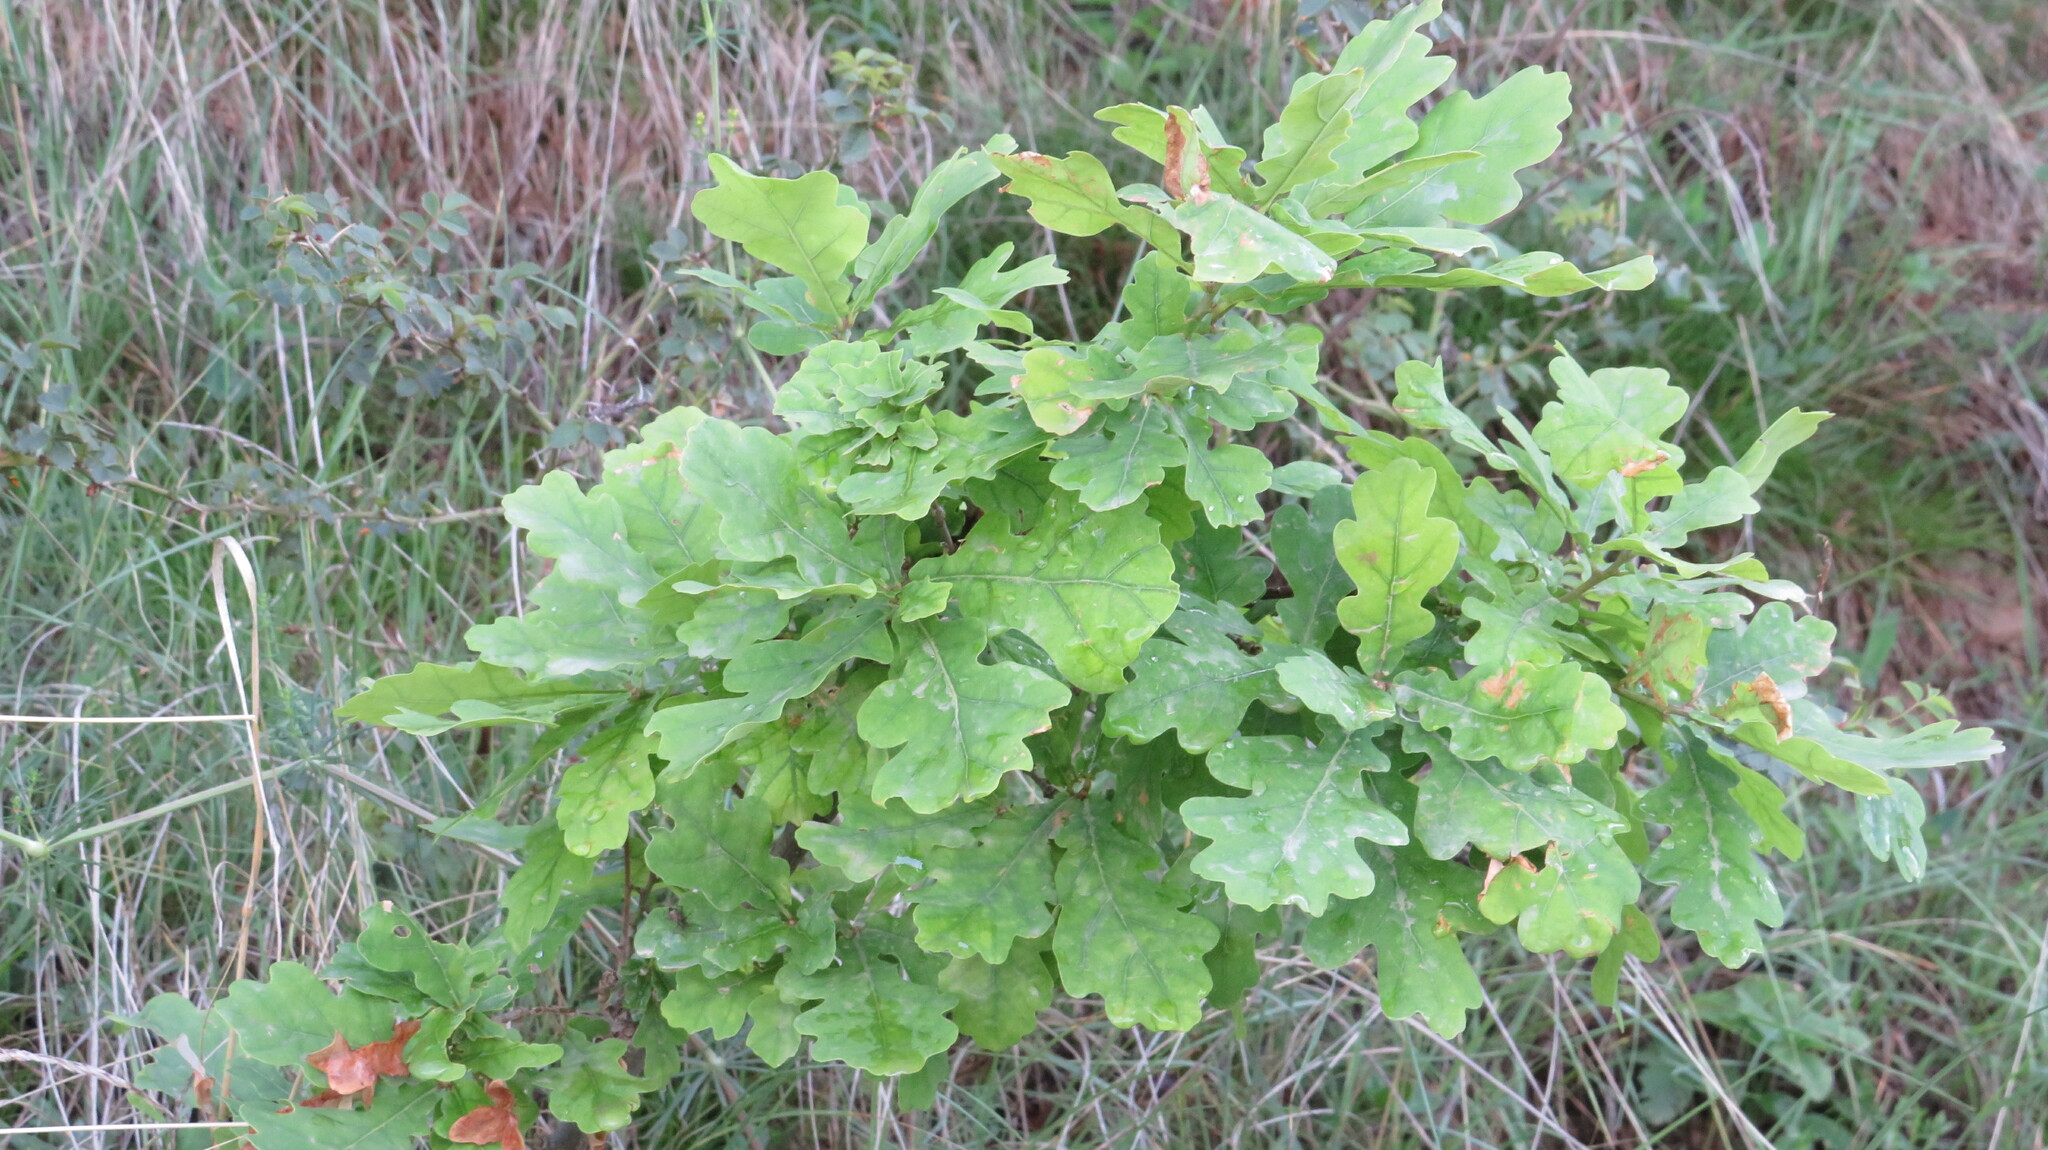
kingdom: Plantae
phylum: Tracheophyta
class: Magnoliopsida
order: Fagales
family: Fagaceae
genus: Quercus
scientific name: Quercus robur
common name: Pedunculate oak
